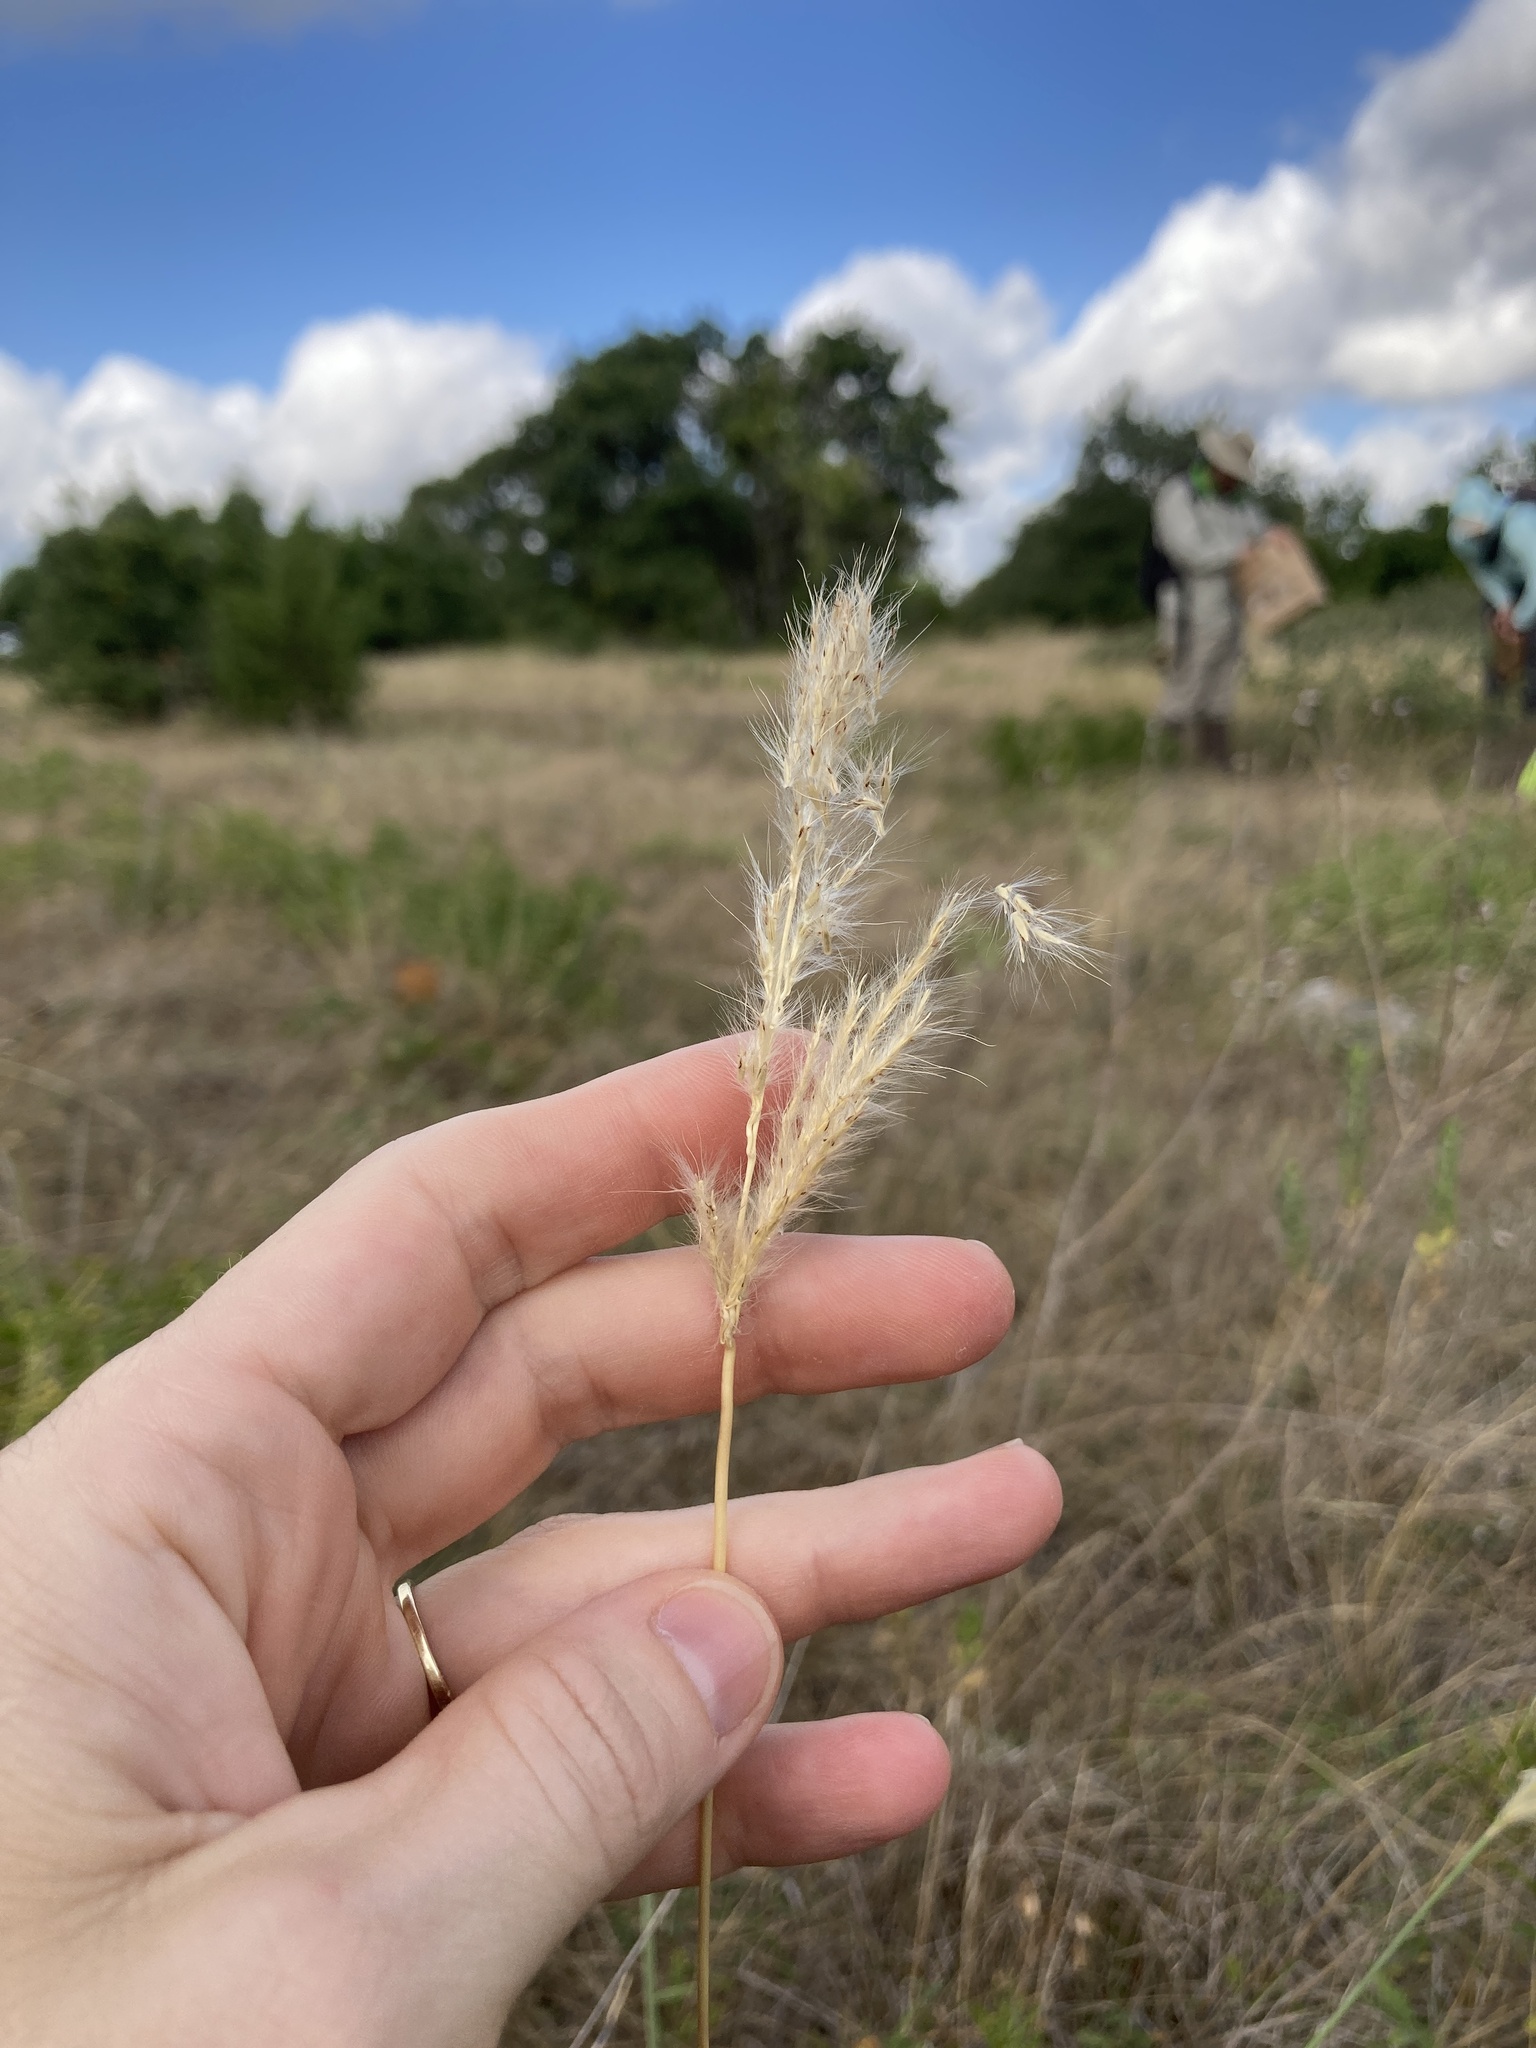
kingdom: Plantae
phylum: Tracheophyta
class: Liliopsida
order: Poales
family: Poaceae
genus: Bothriochloa
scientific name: Bothriochloa torreyana
